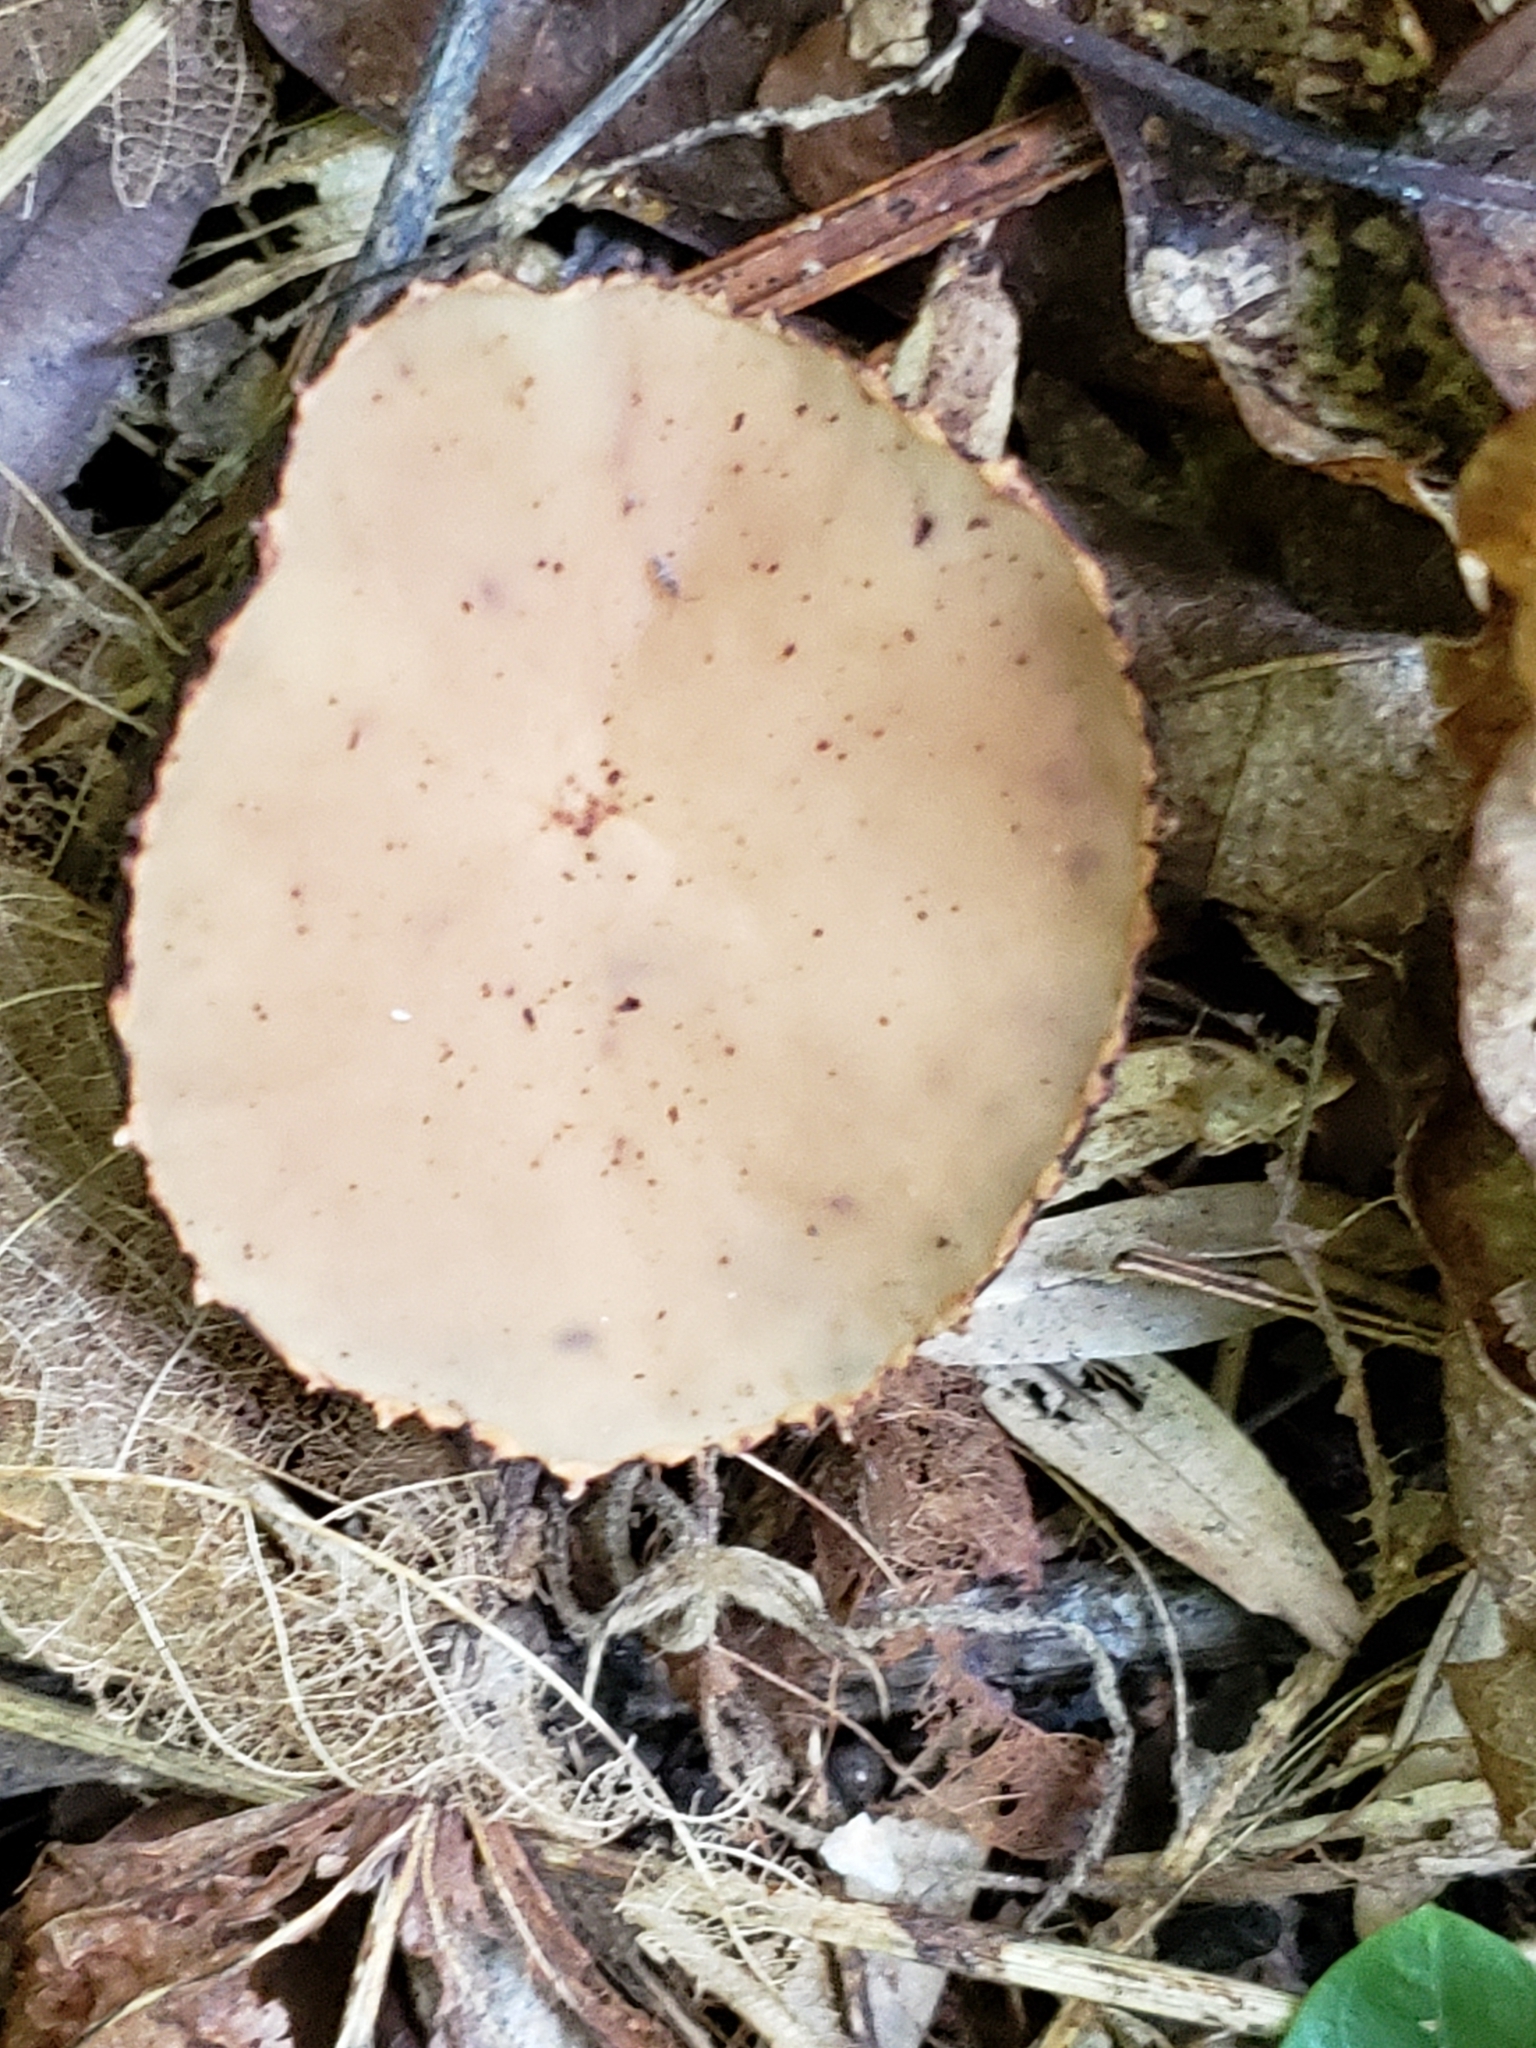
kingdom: Fungi
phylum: Ascomycota
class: Pezizomycetes
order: Pezizales
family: Sarcosomataceae
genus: Galiella
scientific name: Galiella rufa
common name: Hairy rubber cup
